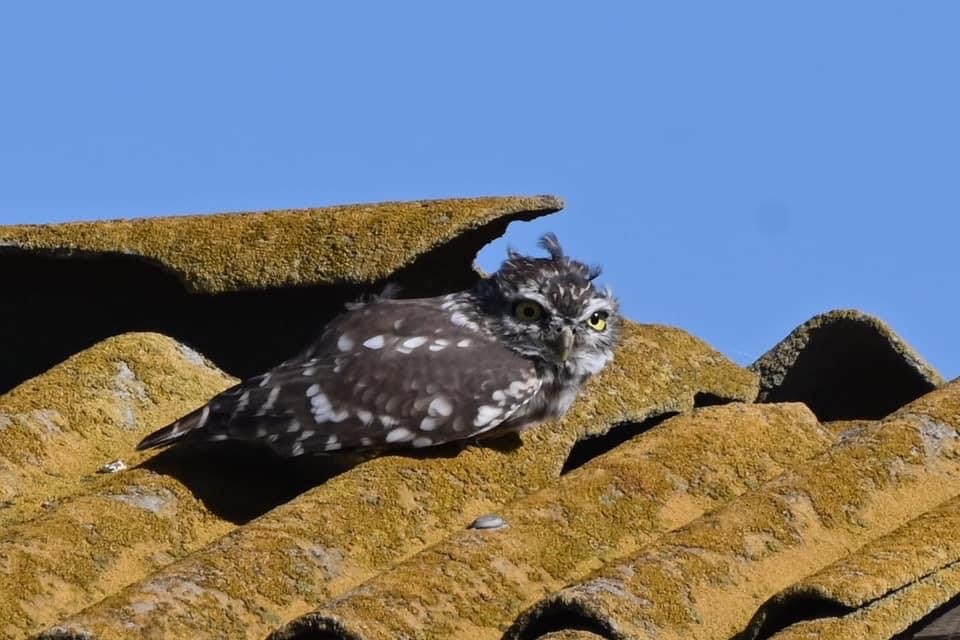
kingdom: Animalia
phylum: Chordata
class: Aves
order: Strigiformes
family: Strigidae
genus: Athene
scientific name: Athene noctua
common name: Little owl
